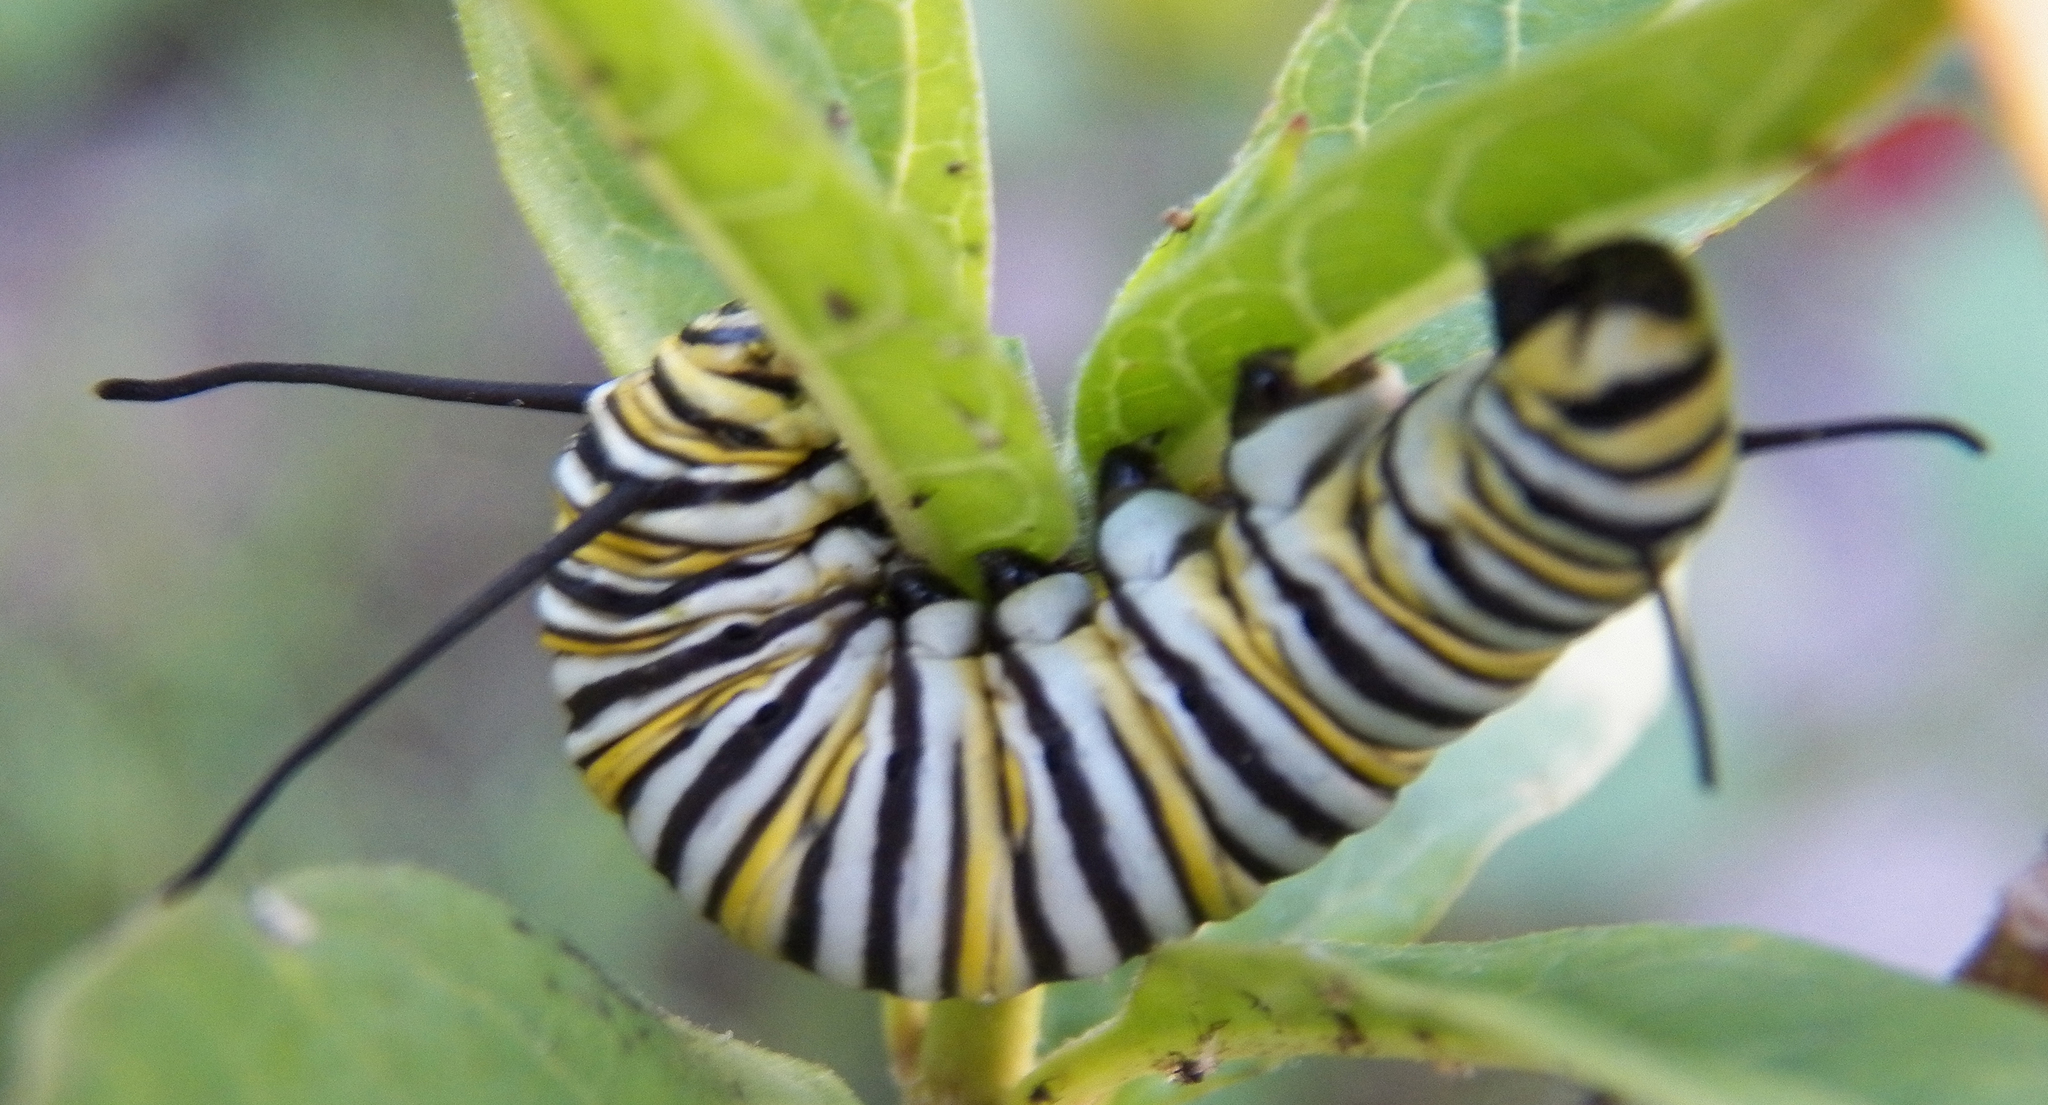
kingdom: Animalia
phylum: Arthropoda
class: Insecta
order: Lepidoptera
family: Nymphalidae
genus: Danaus
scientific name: Danaus plexippus
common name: Monarch
